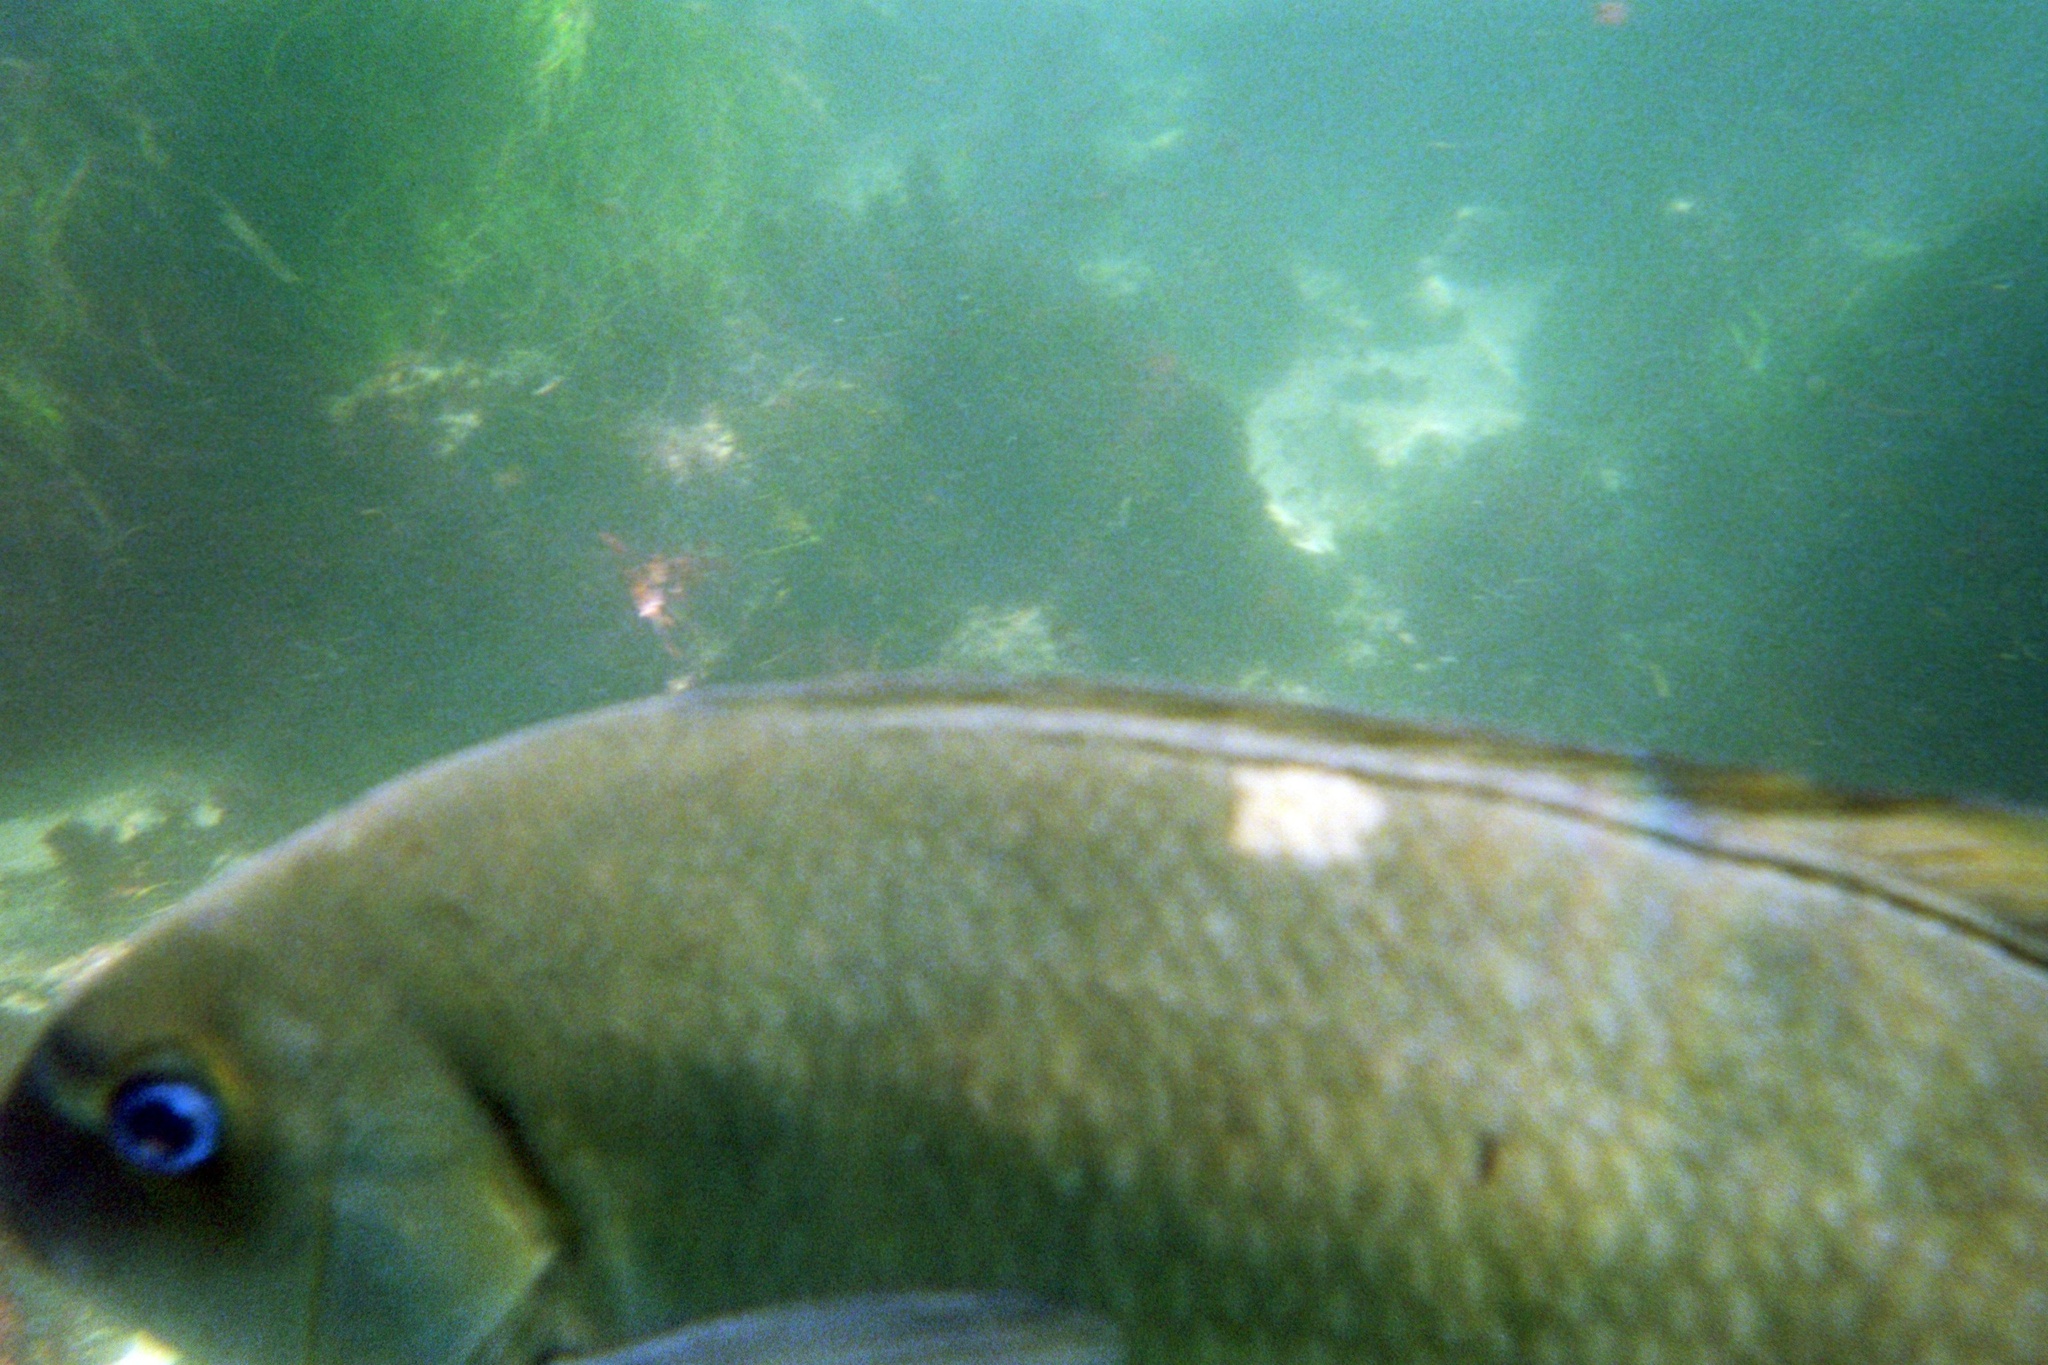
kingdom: Animalia
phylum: Chordata
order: Perciformes
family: Kyphosidae
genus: Girella
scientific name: Girella nigricans
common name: Opaleye
